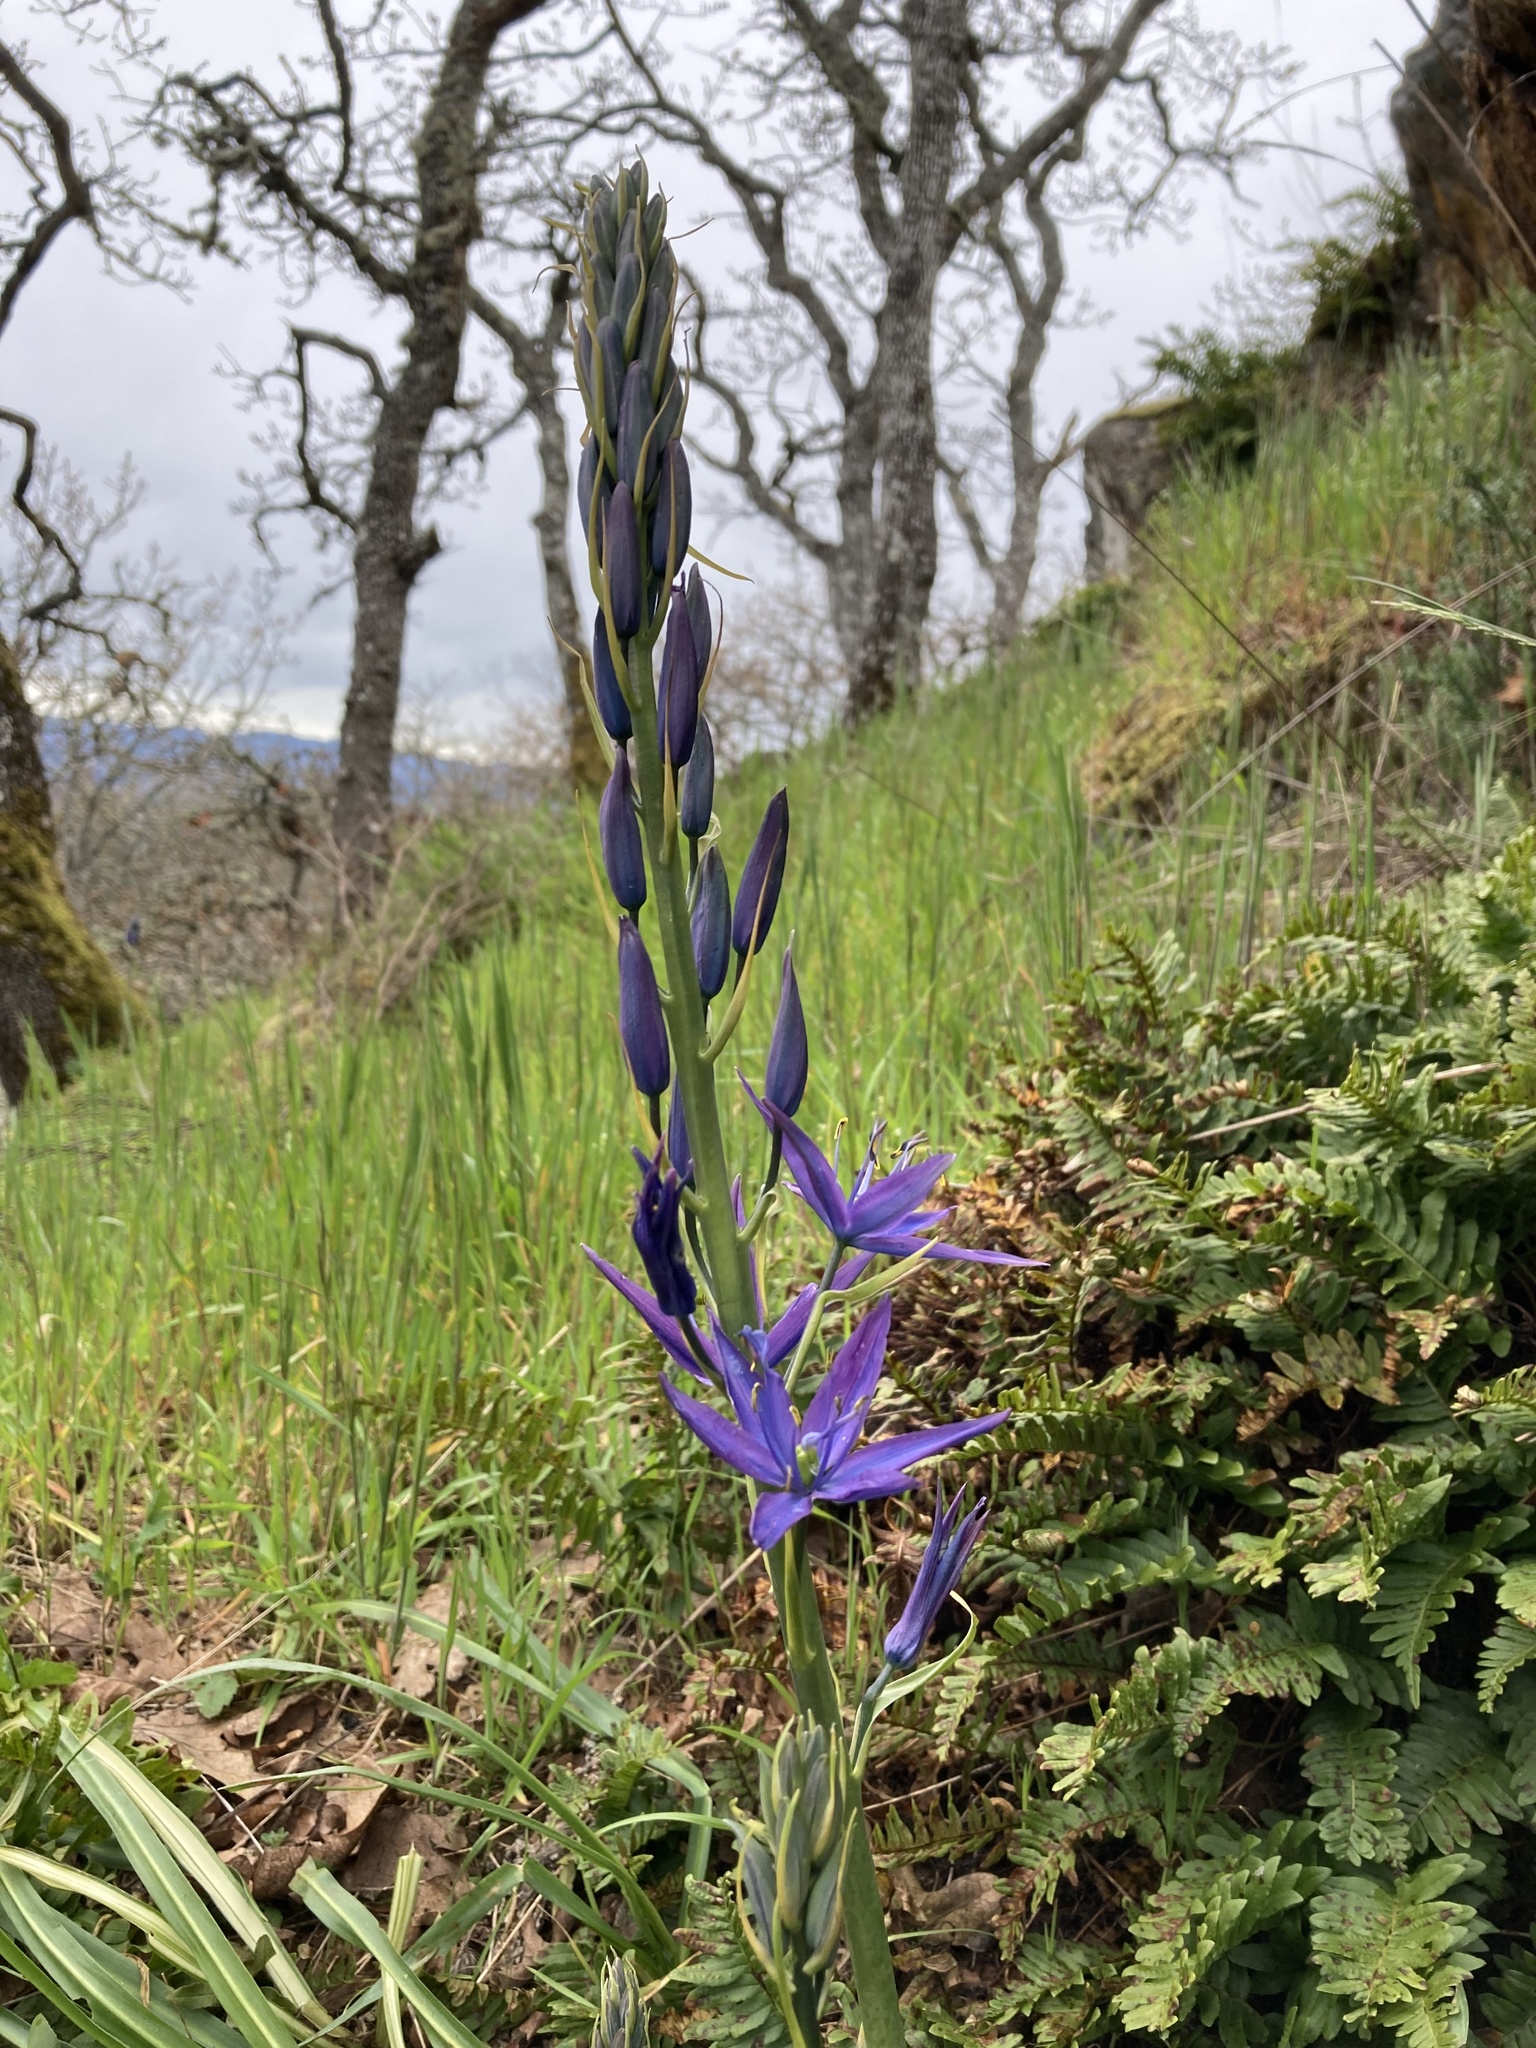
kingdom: Plantae
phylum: Tracheophyta
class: Liliopsida
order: Asparagales
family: Asparagaceae
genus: Camassia
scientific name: Camassia leichtlinii
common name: Leichtlin's camas
